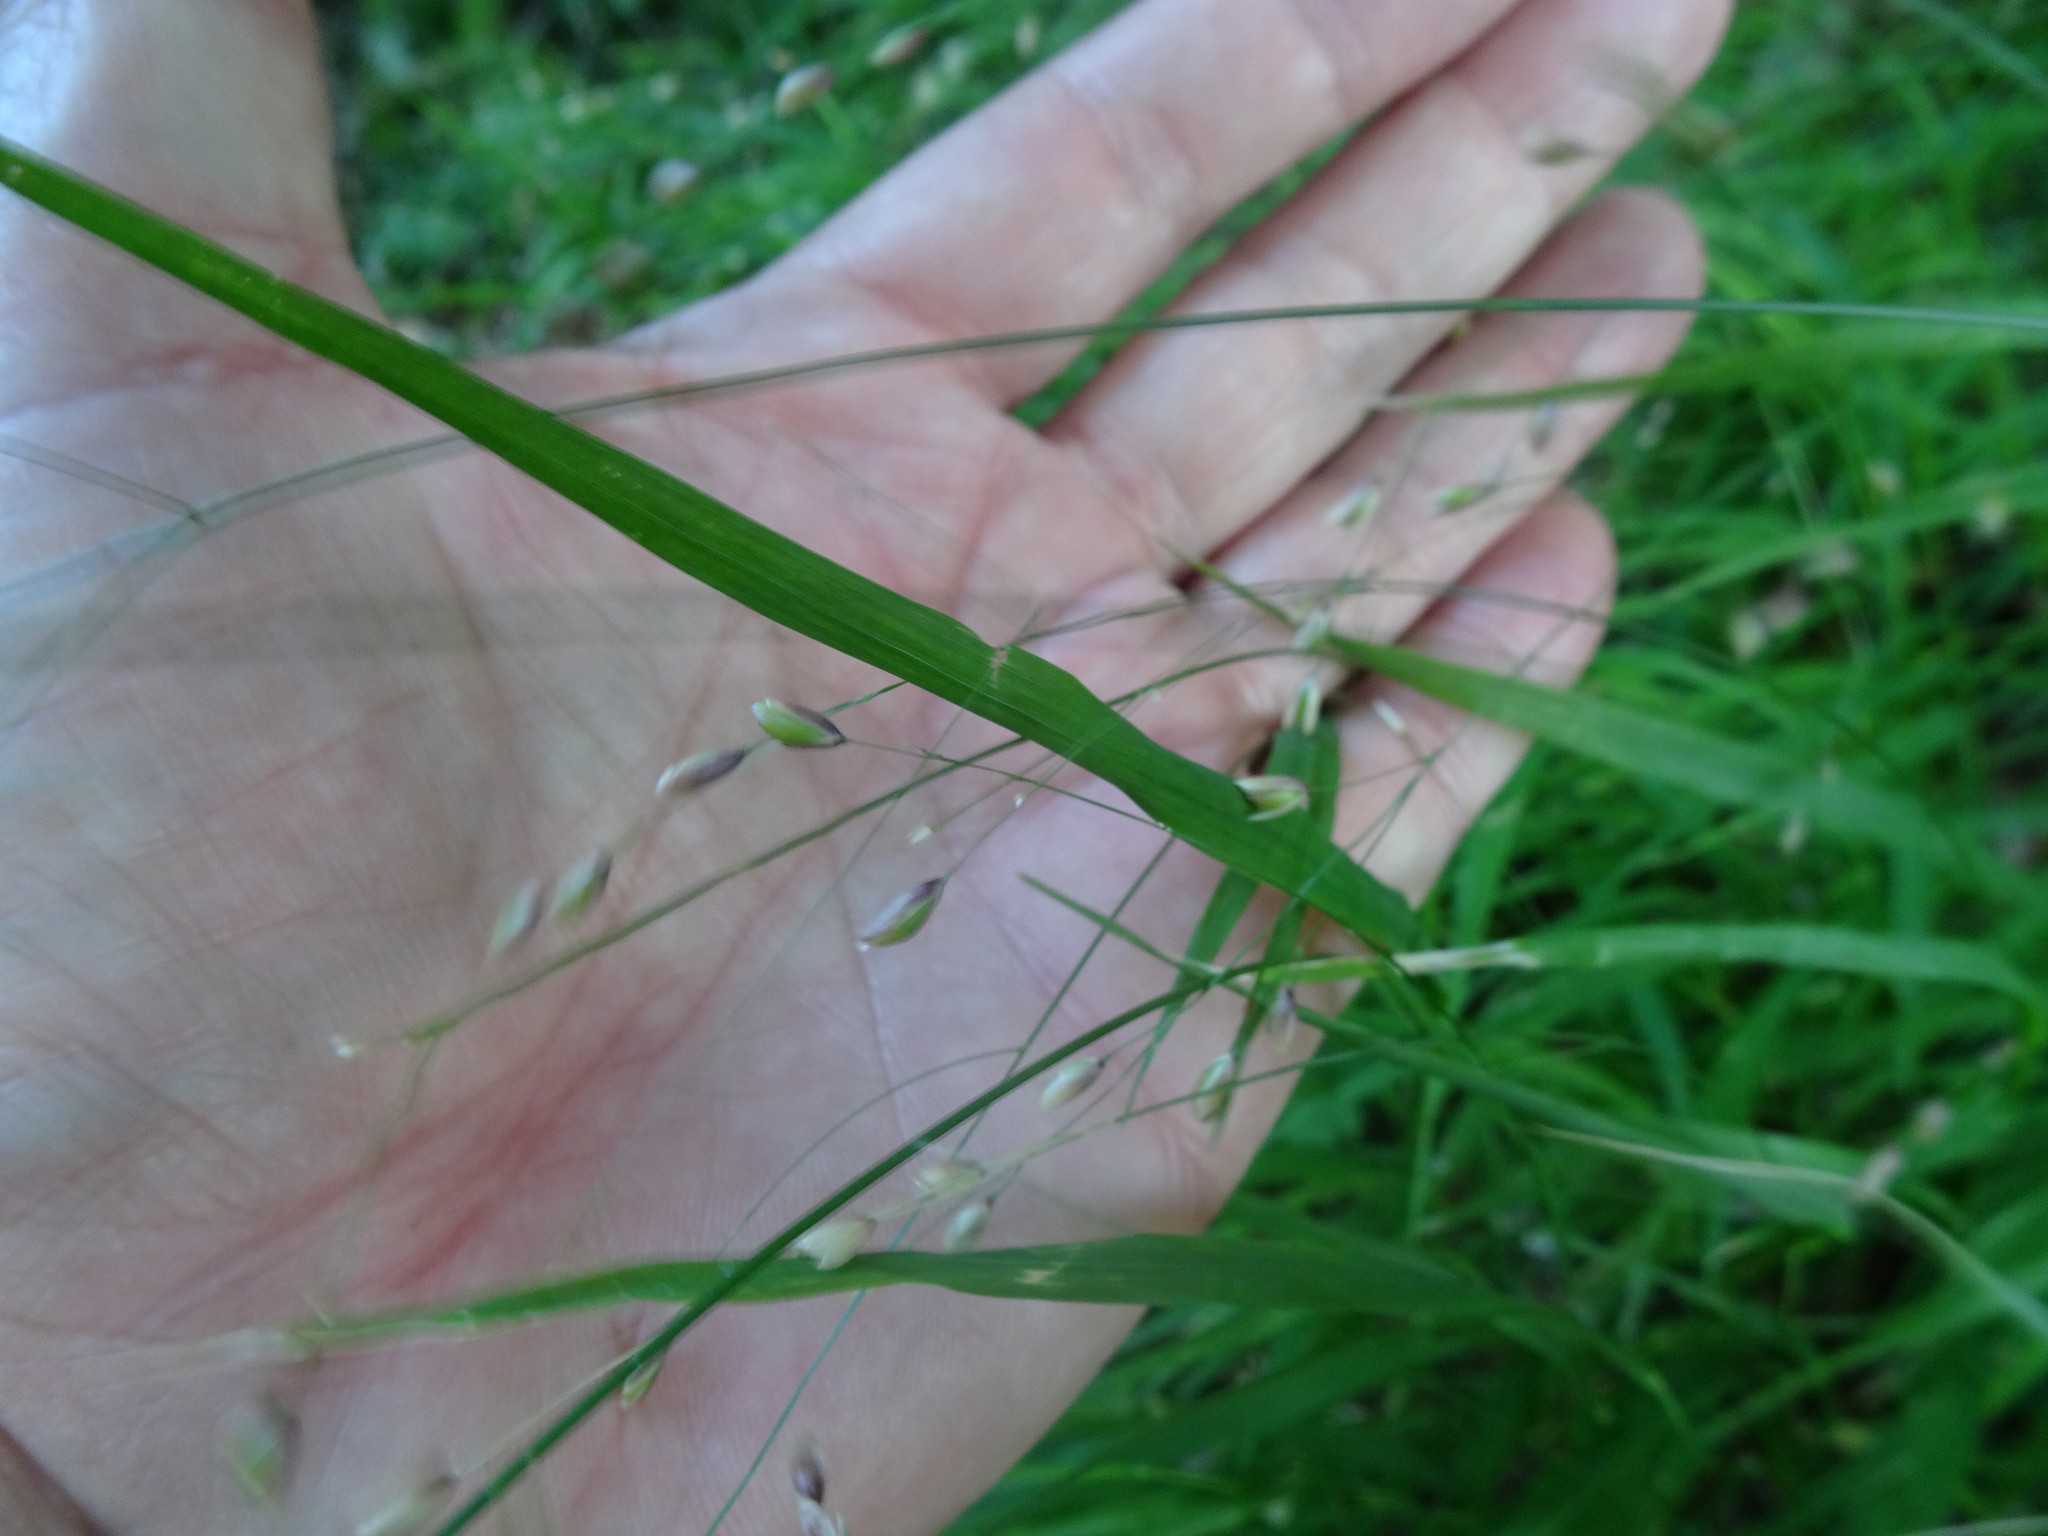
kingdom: Plantae
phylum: Tracheophyta
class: Liliopsida
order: Poales
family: Poaceae
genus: Melica
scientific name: Melica uniflora
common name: Wood melick
